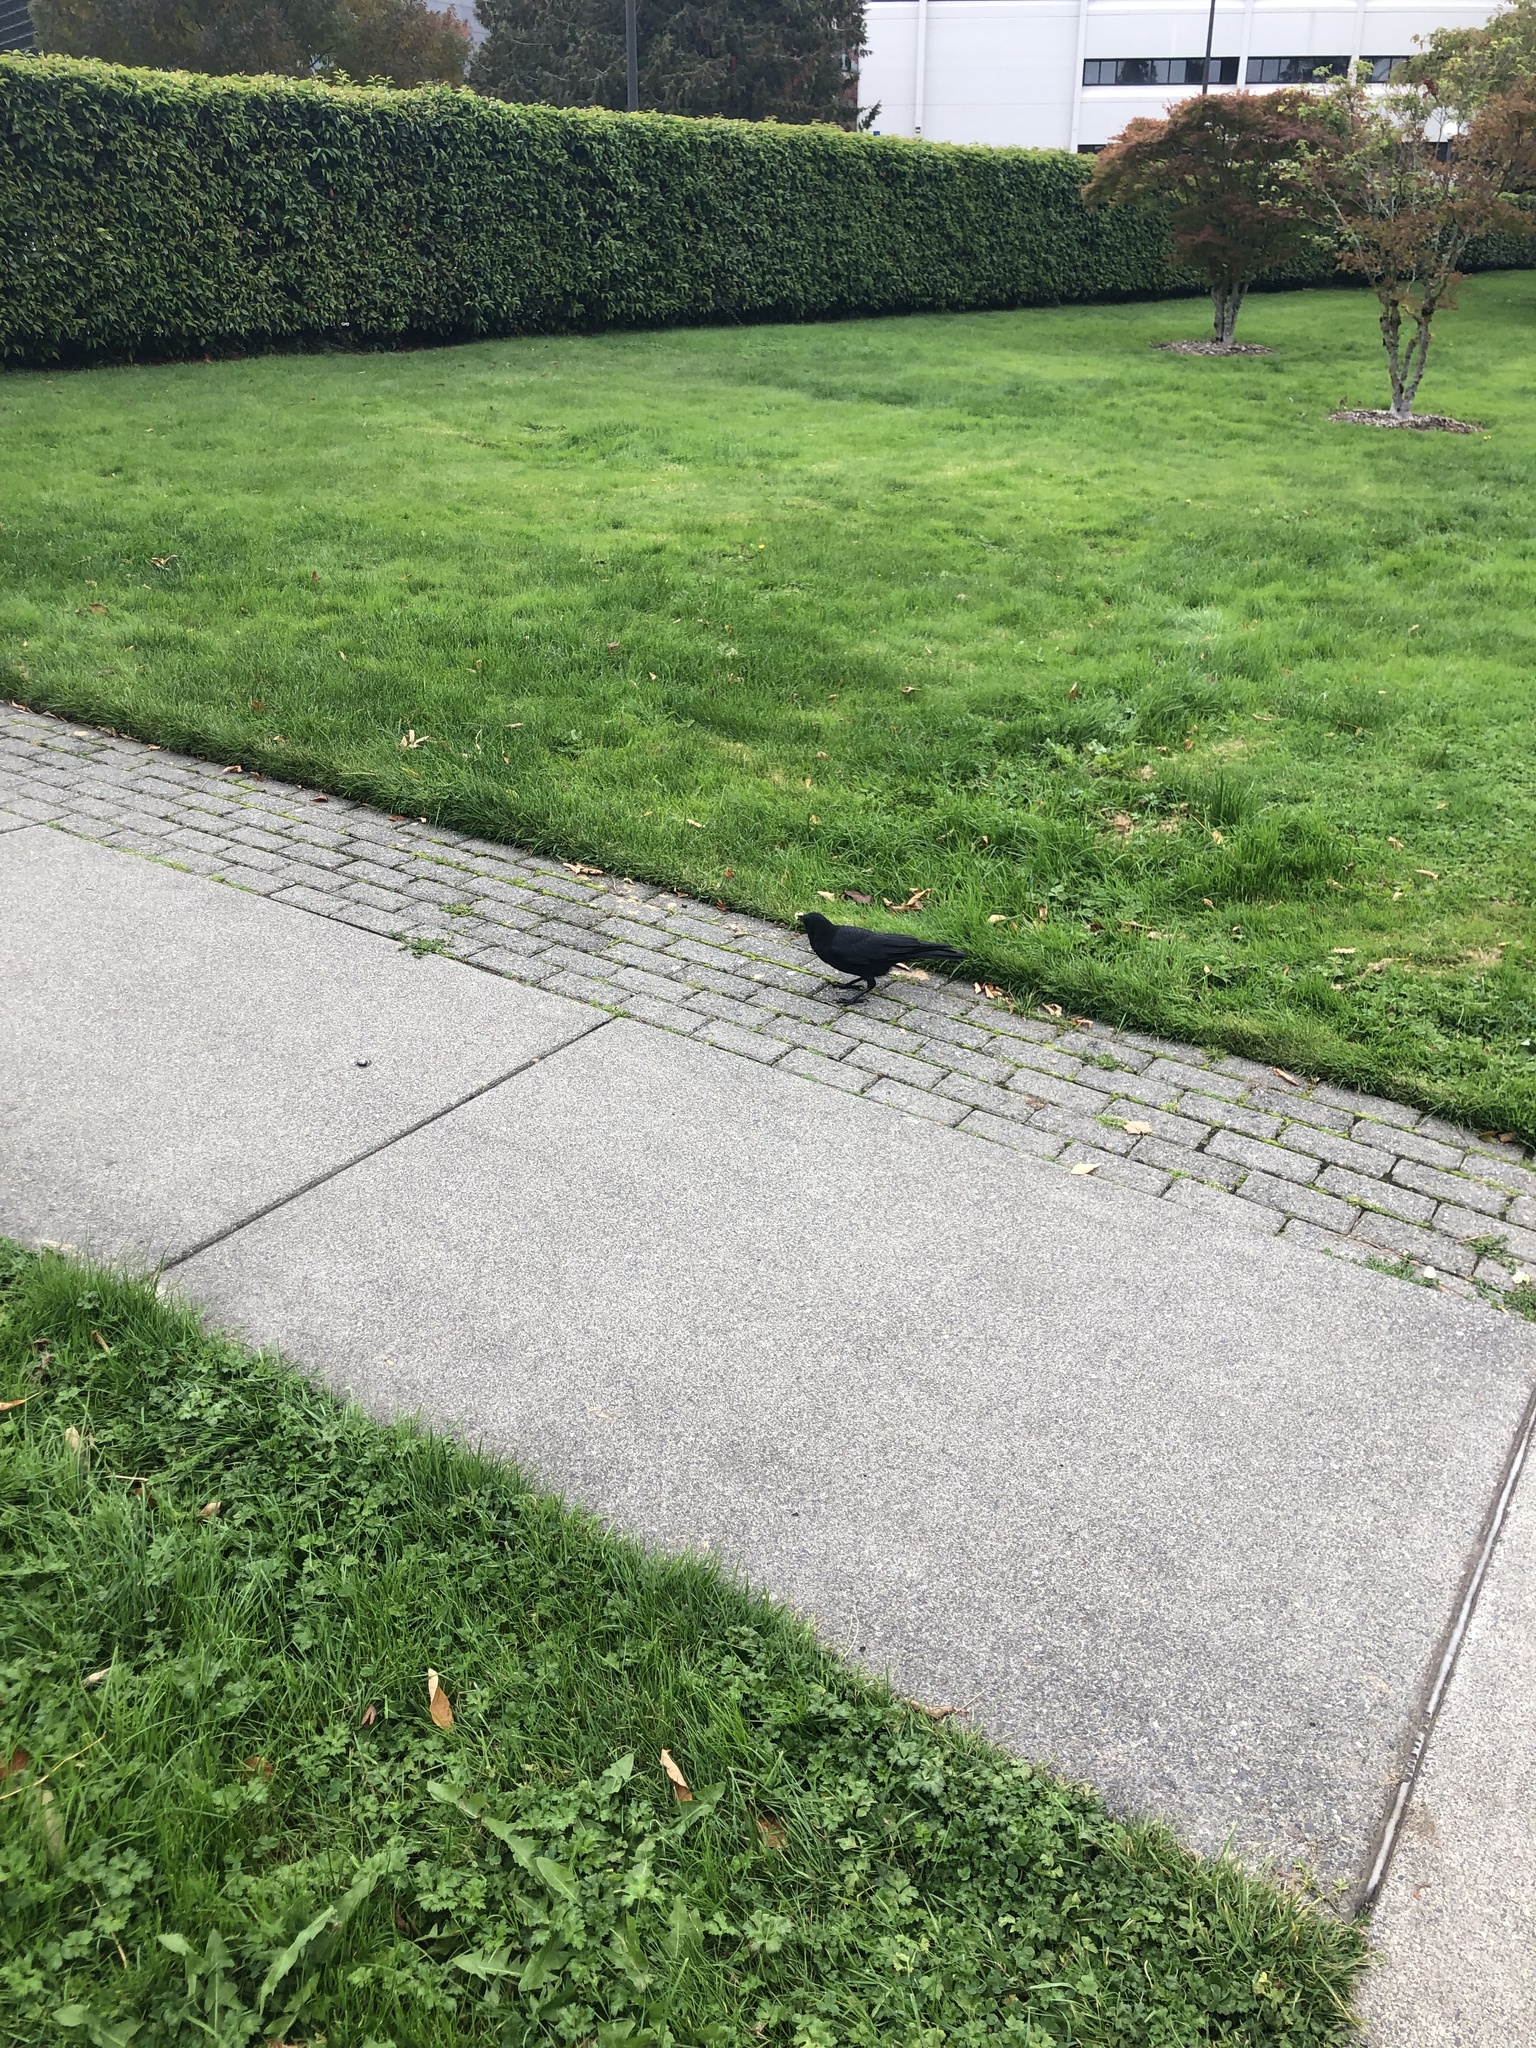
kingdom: Animalia
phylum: Chordata
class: Aves
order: Passeriformes
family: Corvidae
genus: Corvus
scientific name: Corvus brachyrhynchos
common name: American crow
